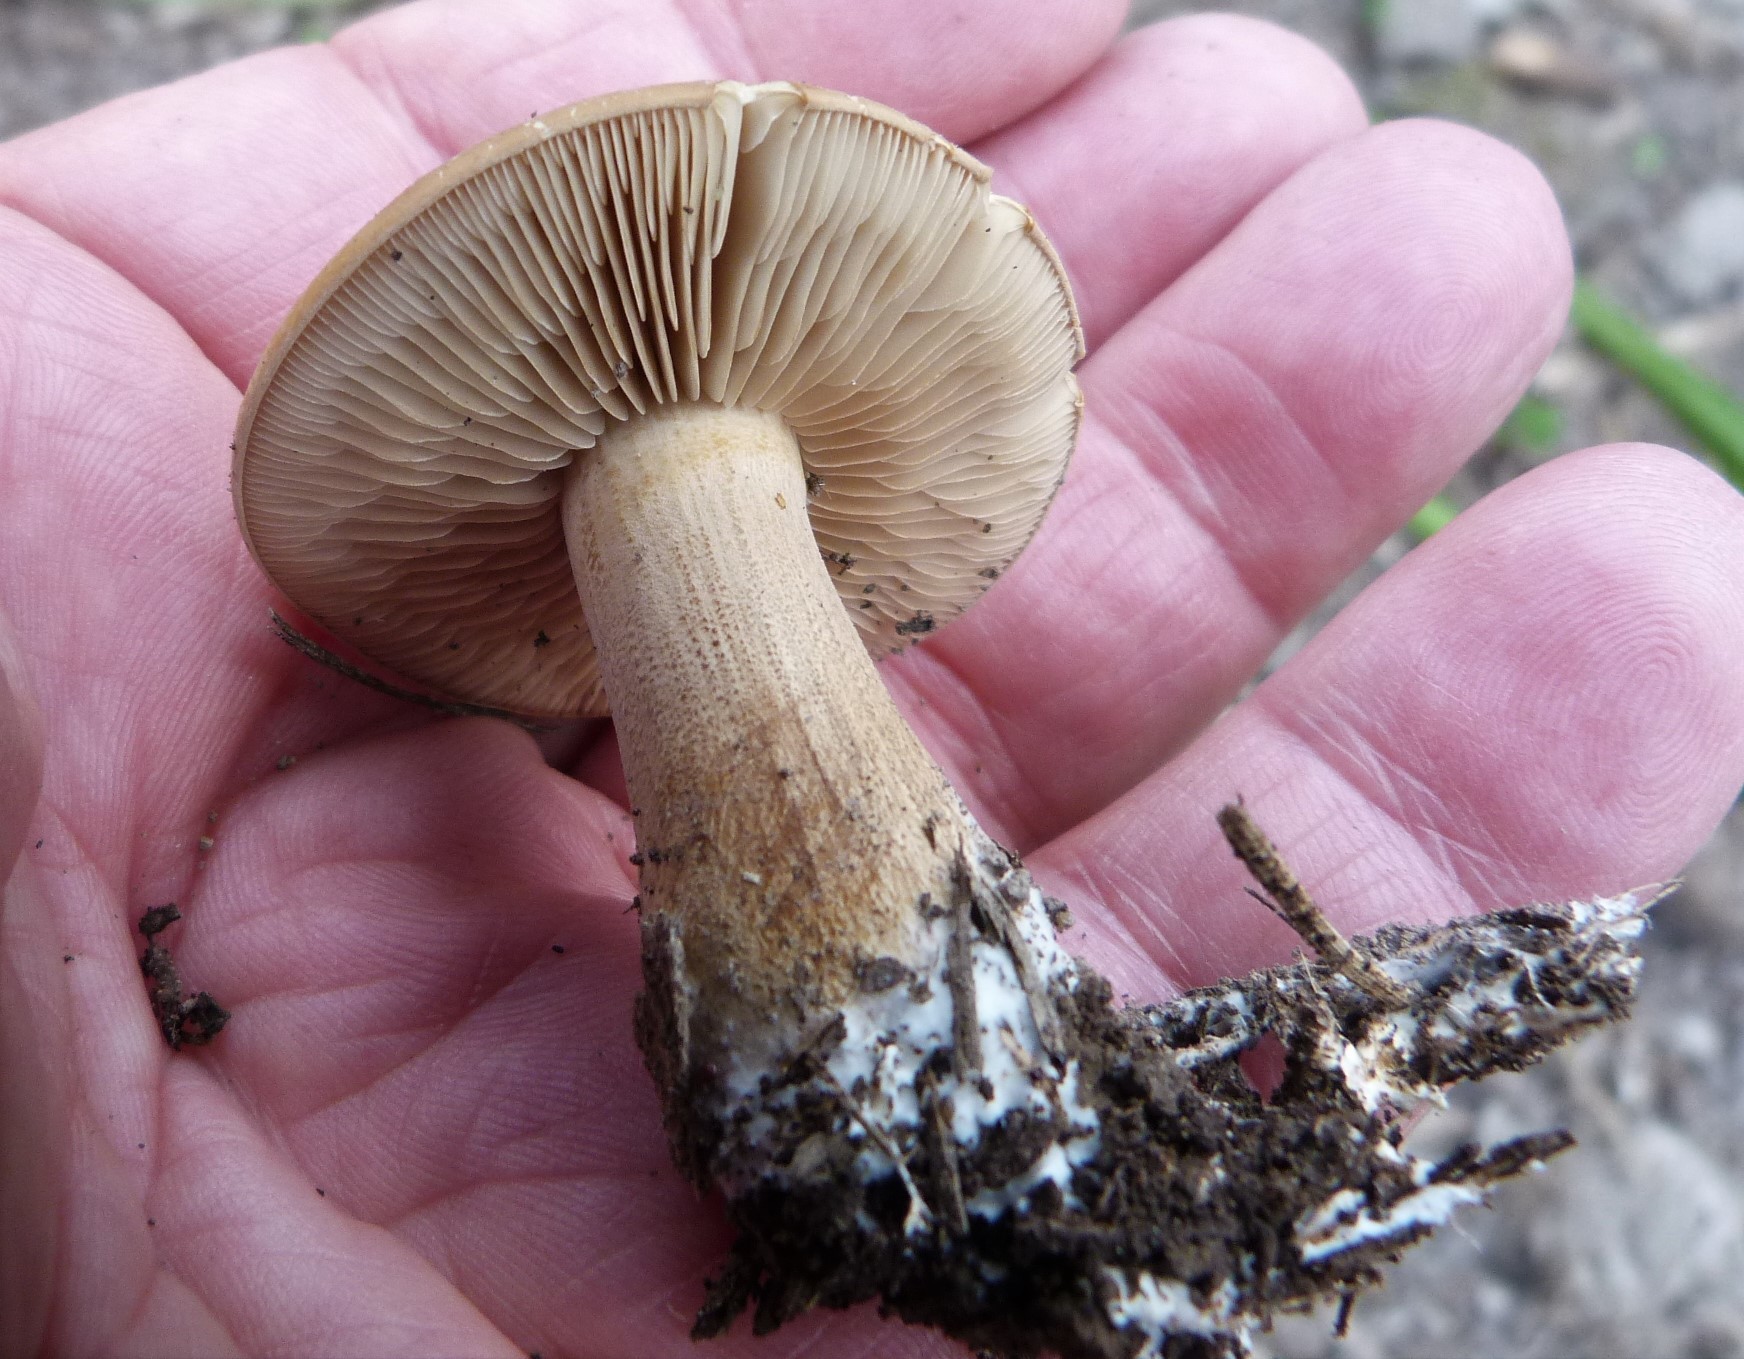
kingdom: Fungi
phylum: Basidiomycota
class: Agaricomycetes
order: Agaricales
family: Strophariaceae
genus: Agrocybe
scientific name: Agrocybe putaminum
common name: Mulch fieldcap
